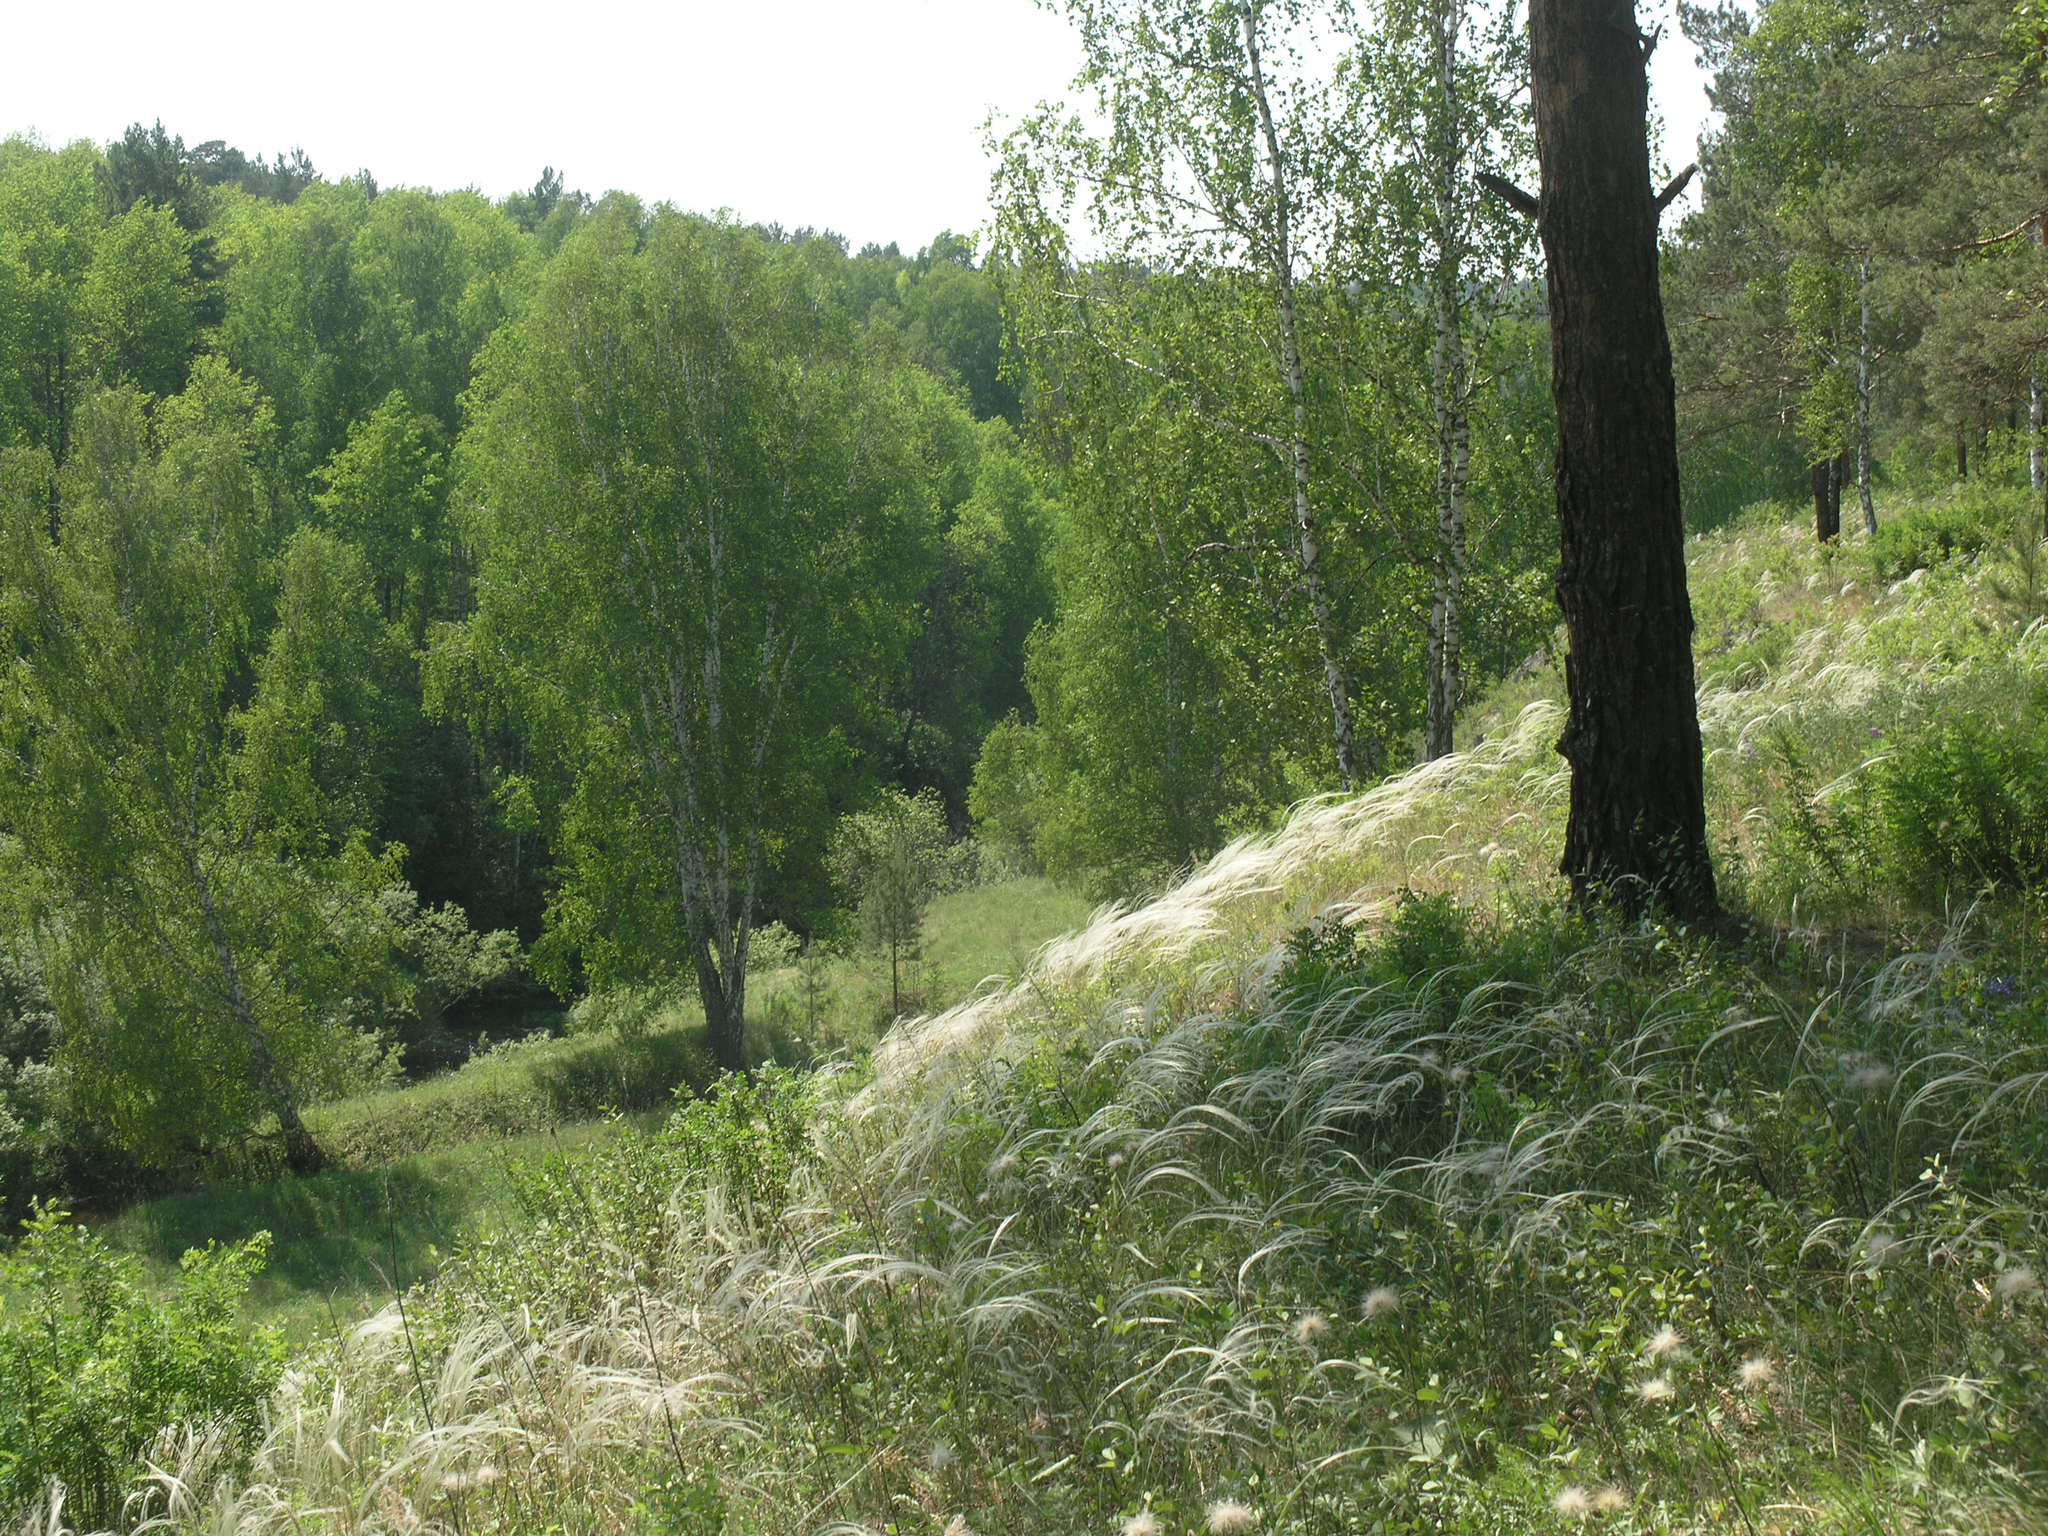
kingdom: Plantae
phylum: Tracheophyta
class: Liliopsida
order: Poales
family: Poaceae
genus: Stipa
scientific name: Stipa pennata
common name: European feather grass
